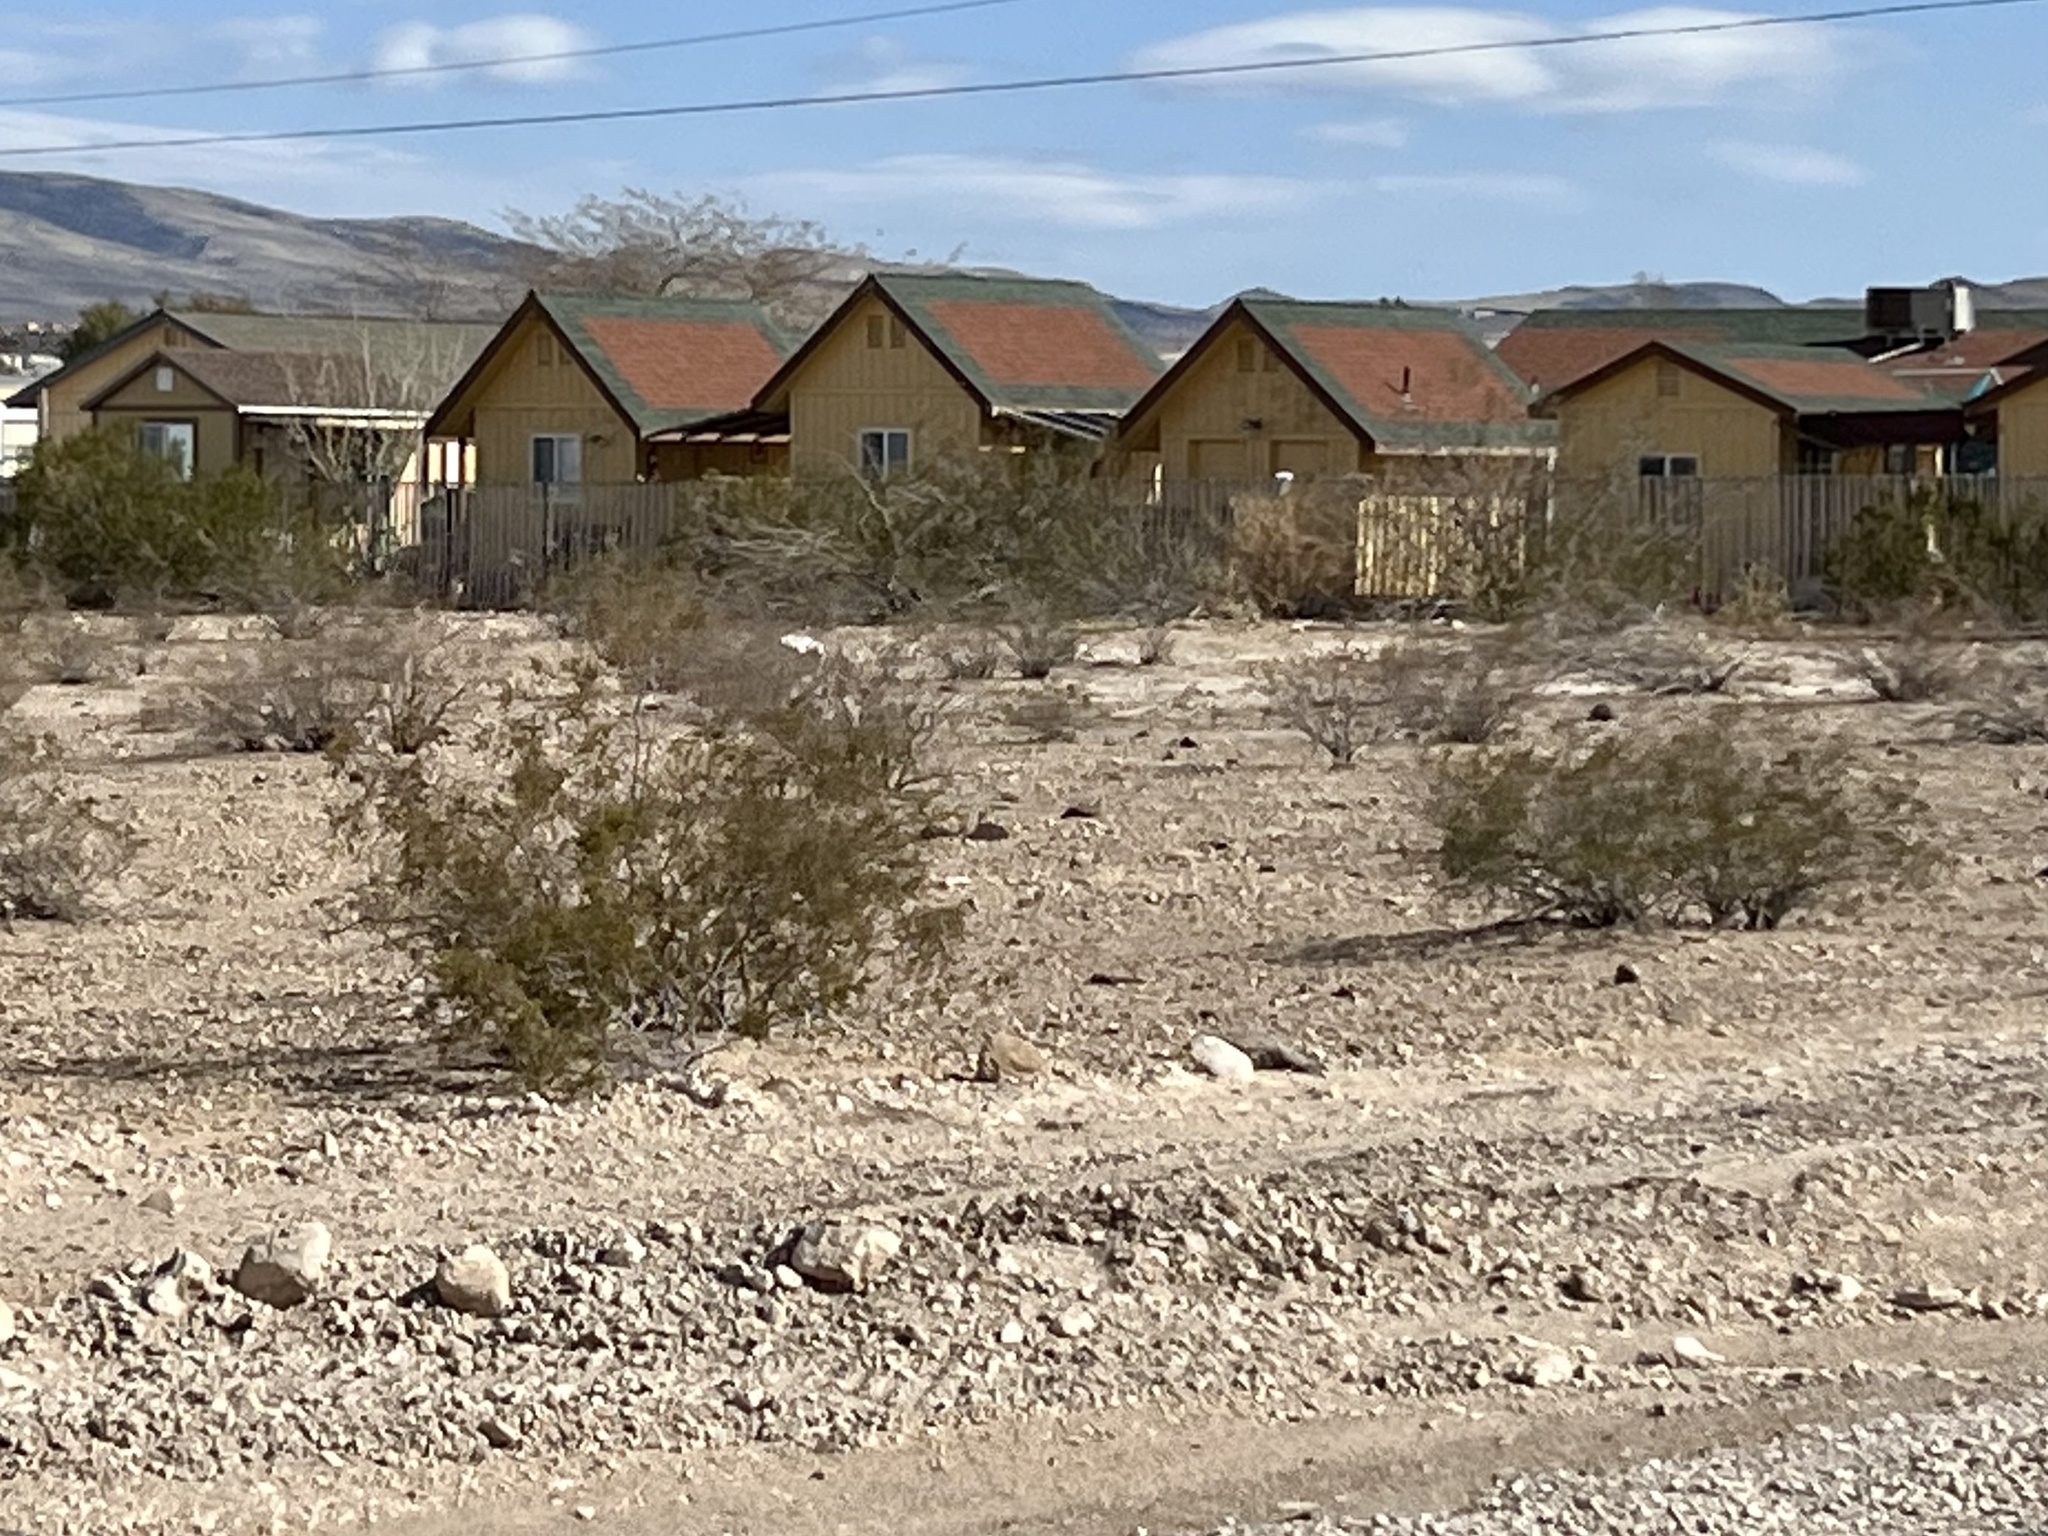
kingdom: Plantae
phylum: Tracheophyta
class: Magnoliopsida
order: Zygophyllales
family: Zygophyllaceae
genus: Larrea
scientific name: Larrea tridentata
